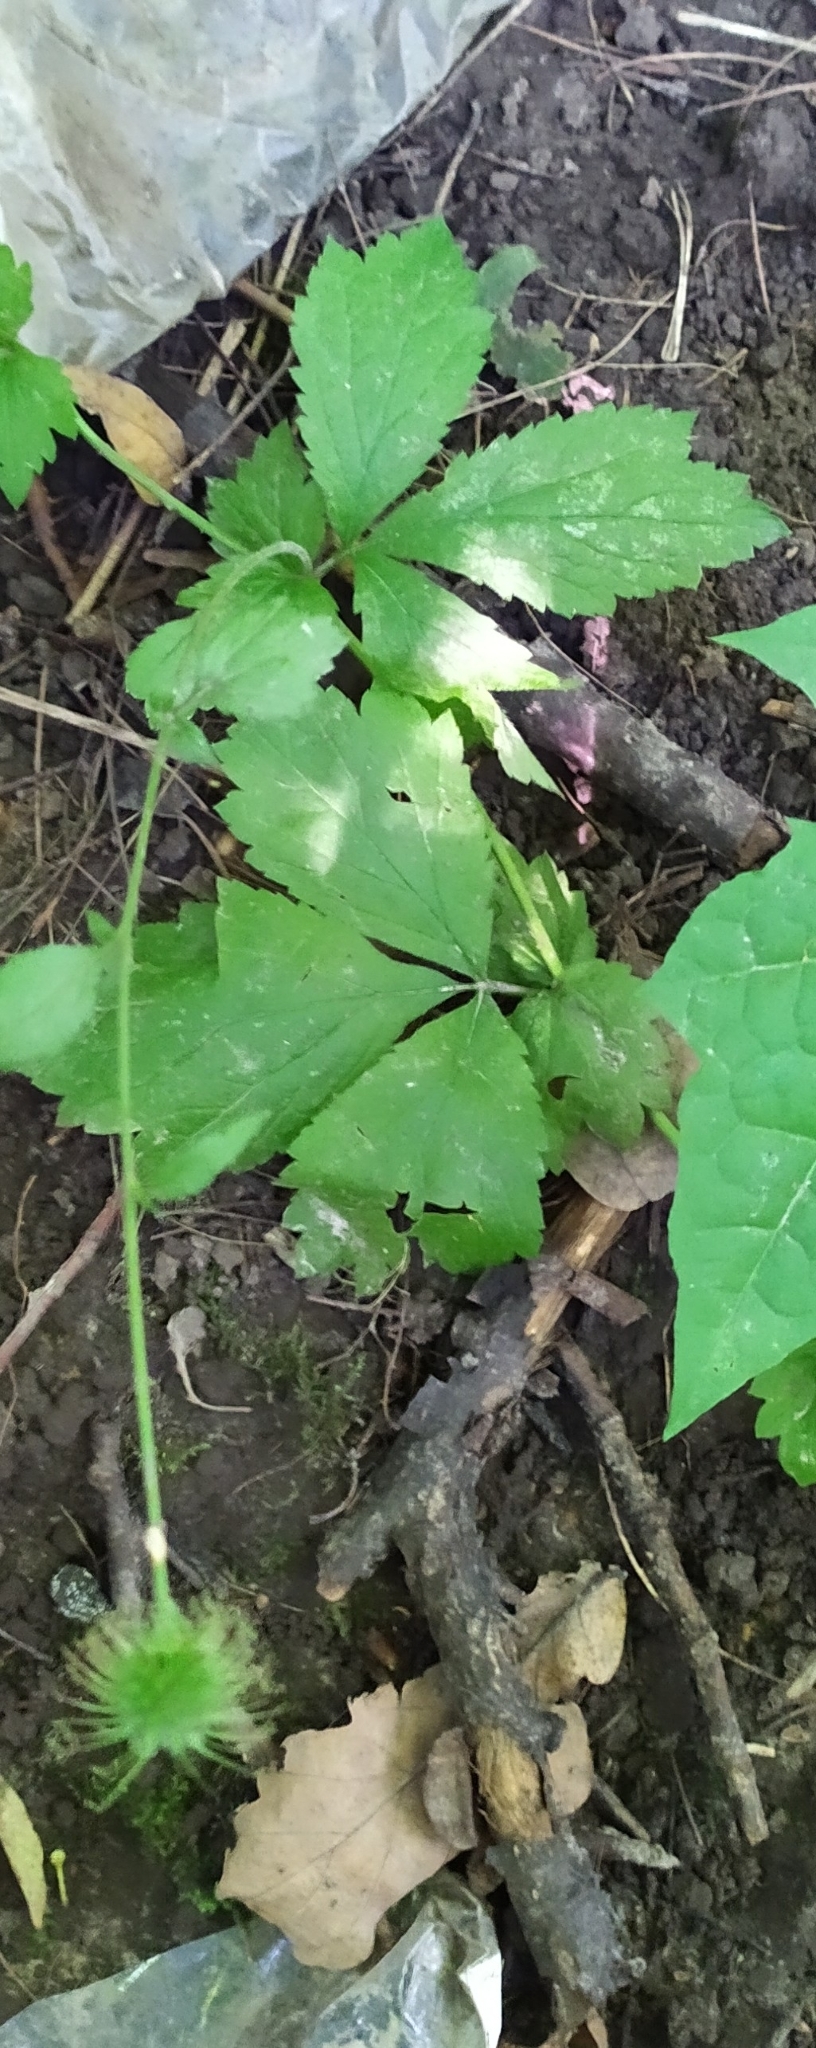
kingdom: Plantae
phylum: Tracheophyta
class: Magnoliopsida
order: Rosales
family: Rosaceae
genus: Geum
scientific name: Geum urbanum
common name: Wood avens
